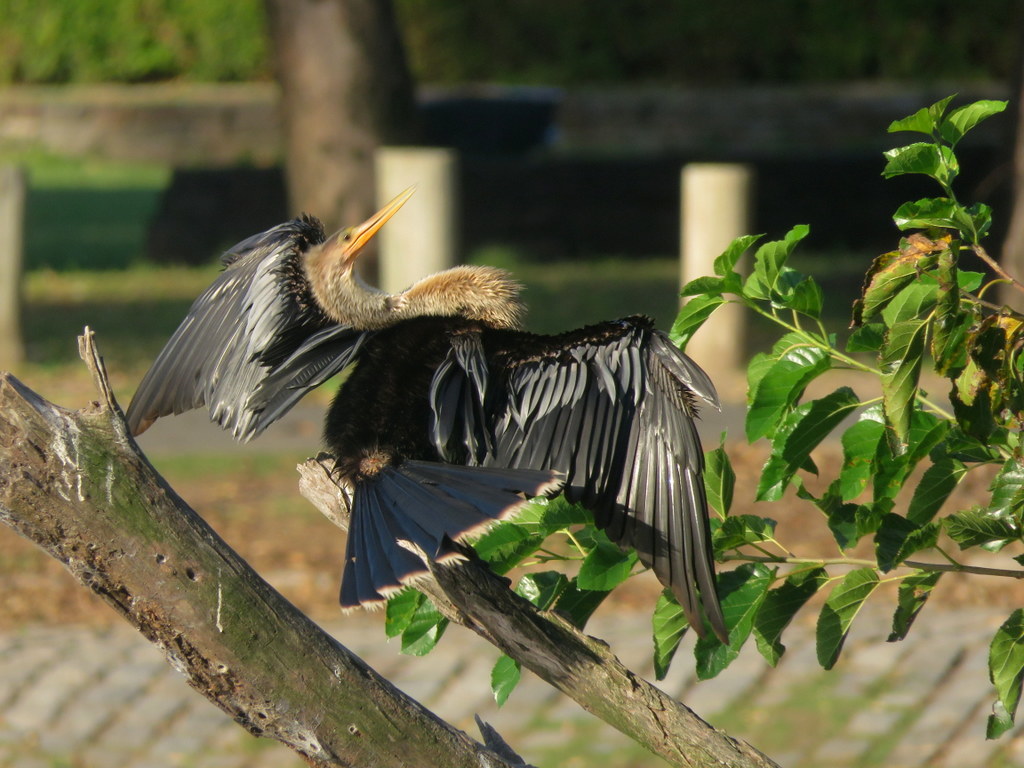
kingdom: Animalia
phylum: Chordata
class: Aves
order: Suliformes
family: Anhingidae
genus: Anhinga
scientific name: Anhinga anhinga
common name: Anhinga
